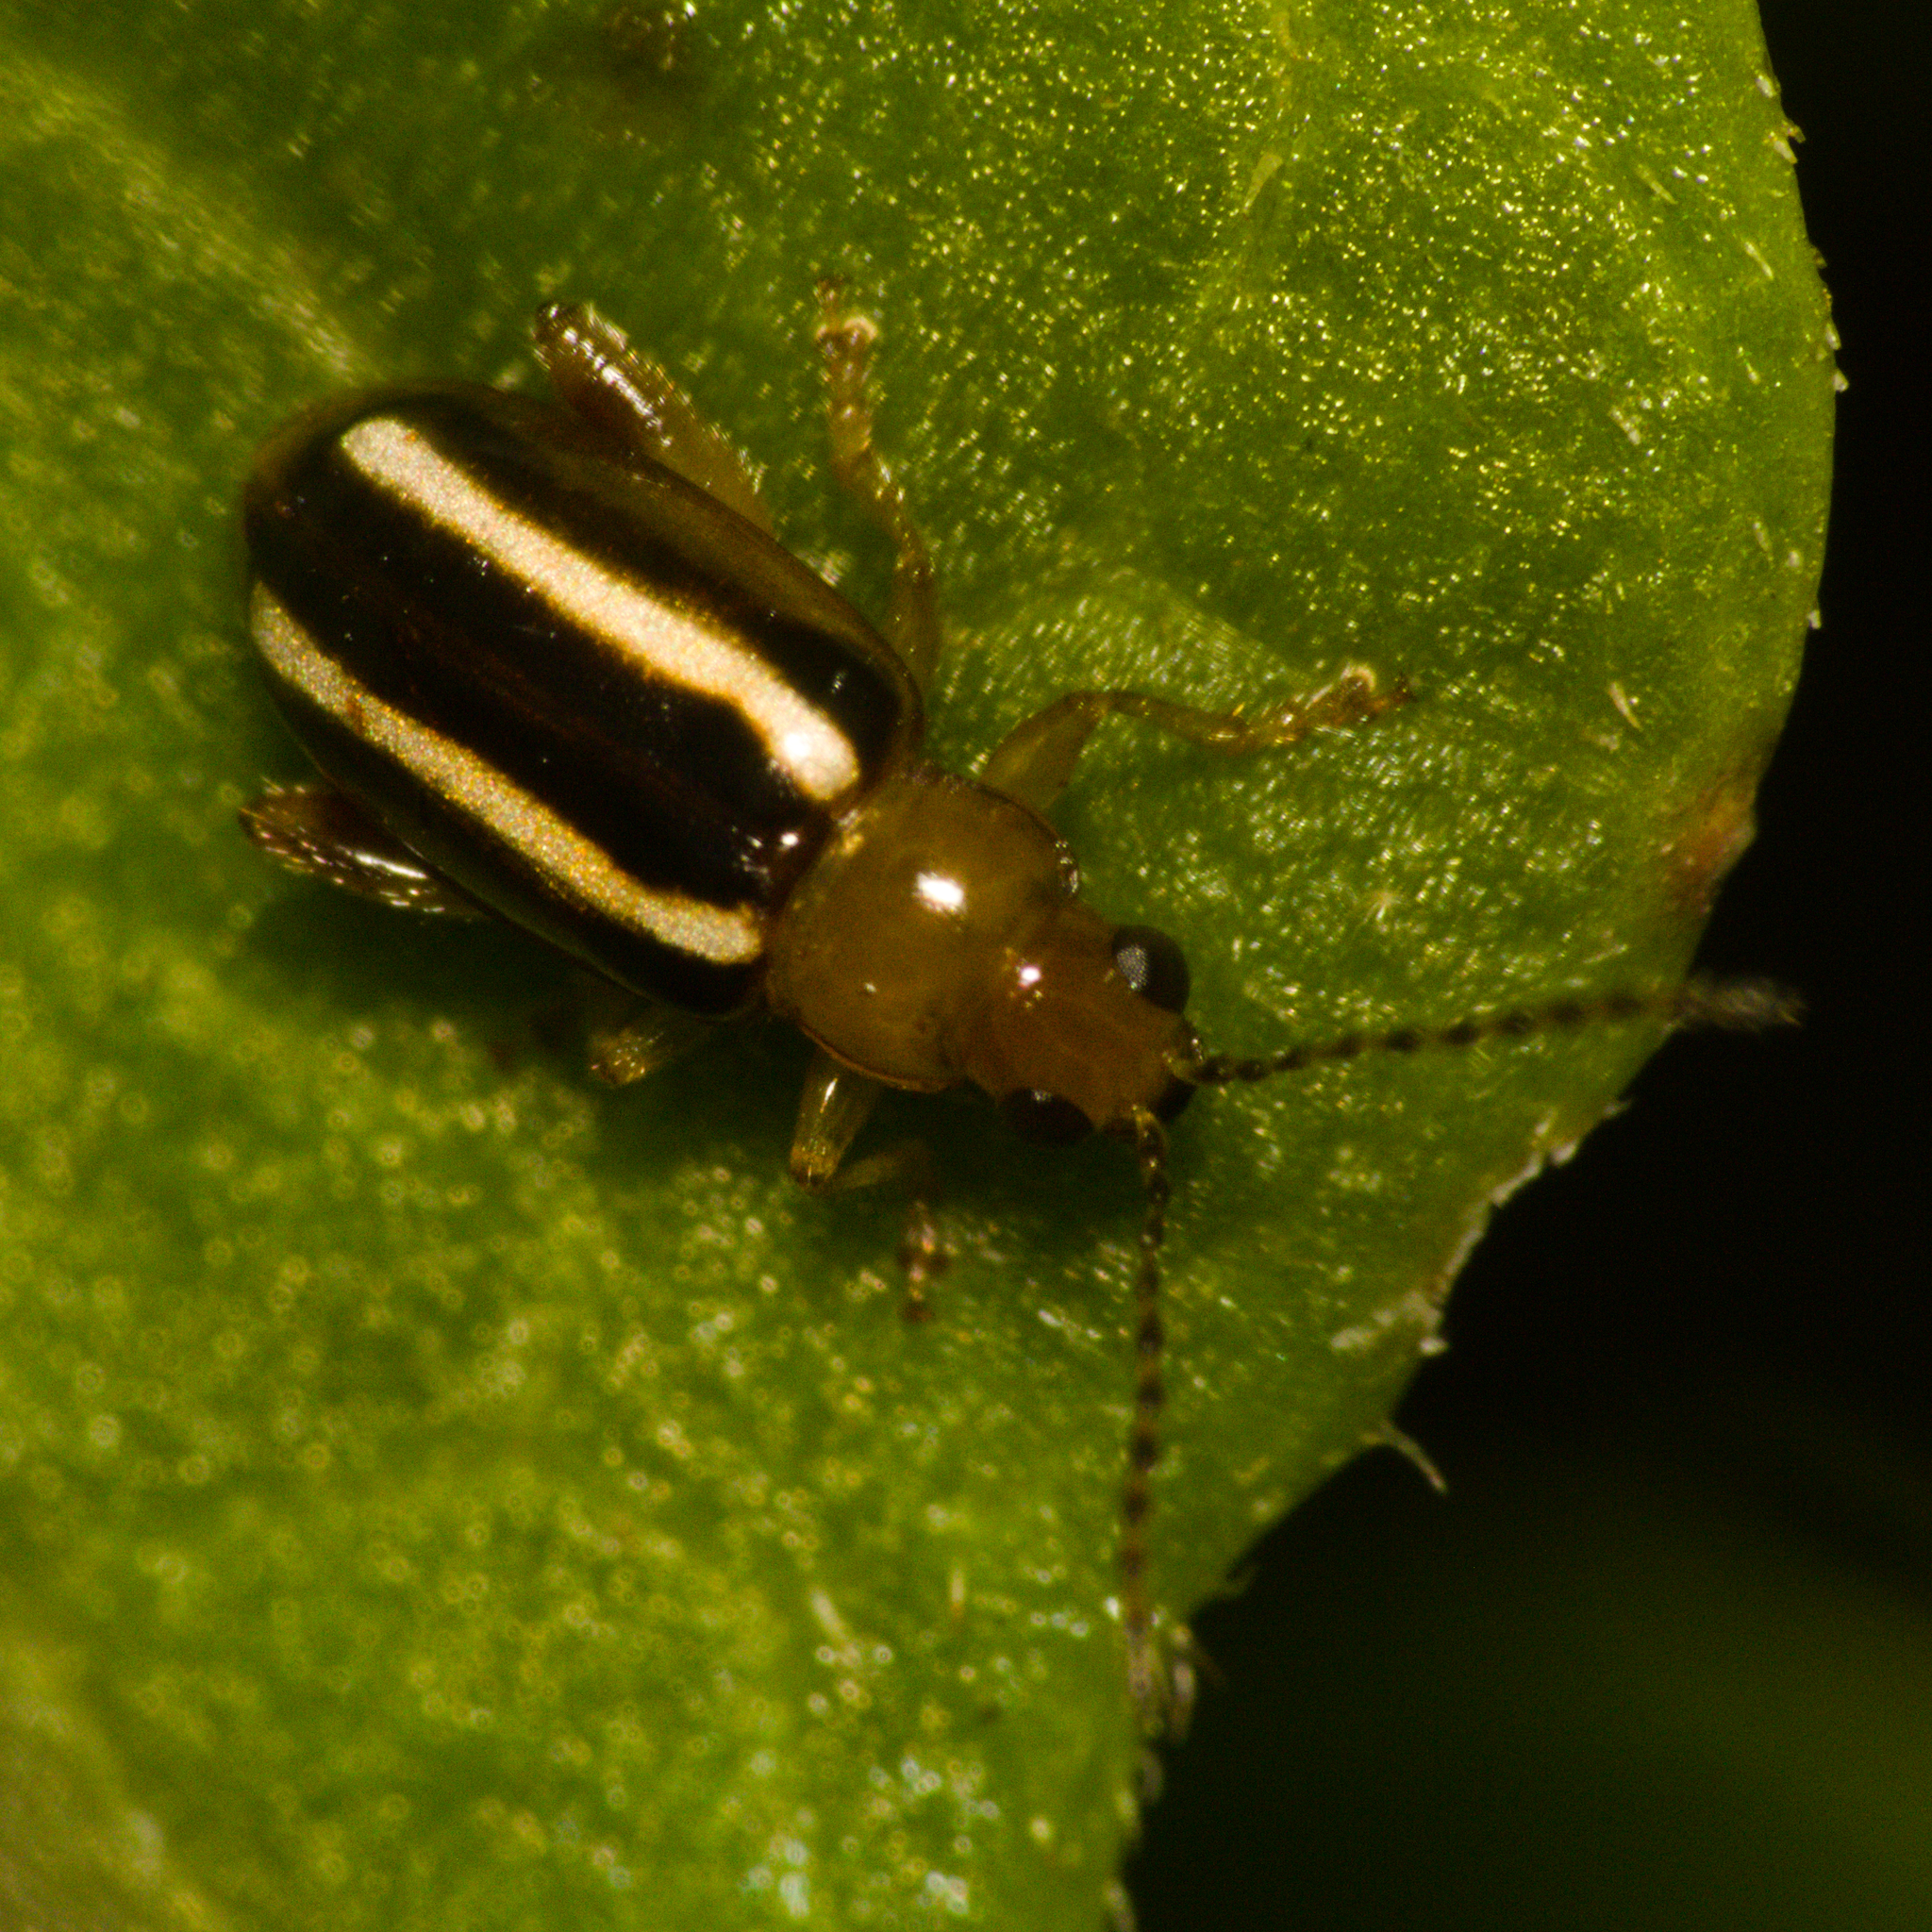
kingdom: Animalia
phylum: Arthropoda
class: Insecta
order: Coleoptera
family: Chrysomelidae
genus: Systena
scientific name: Systena
